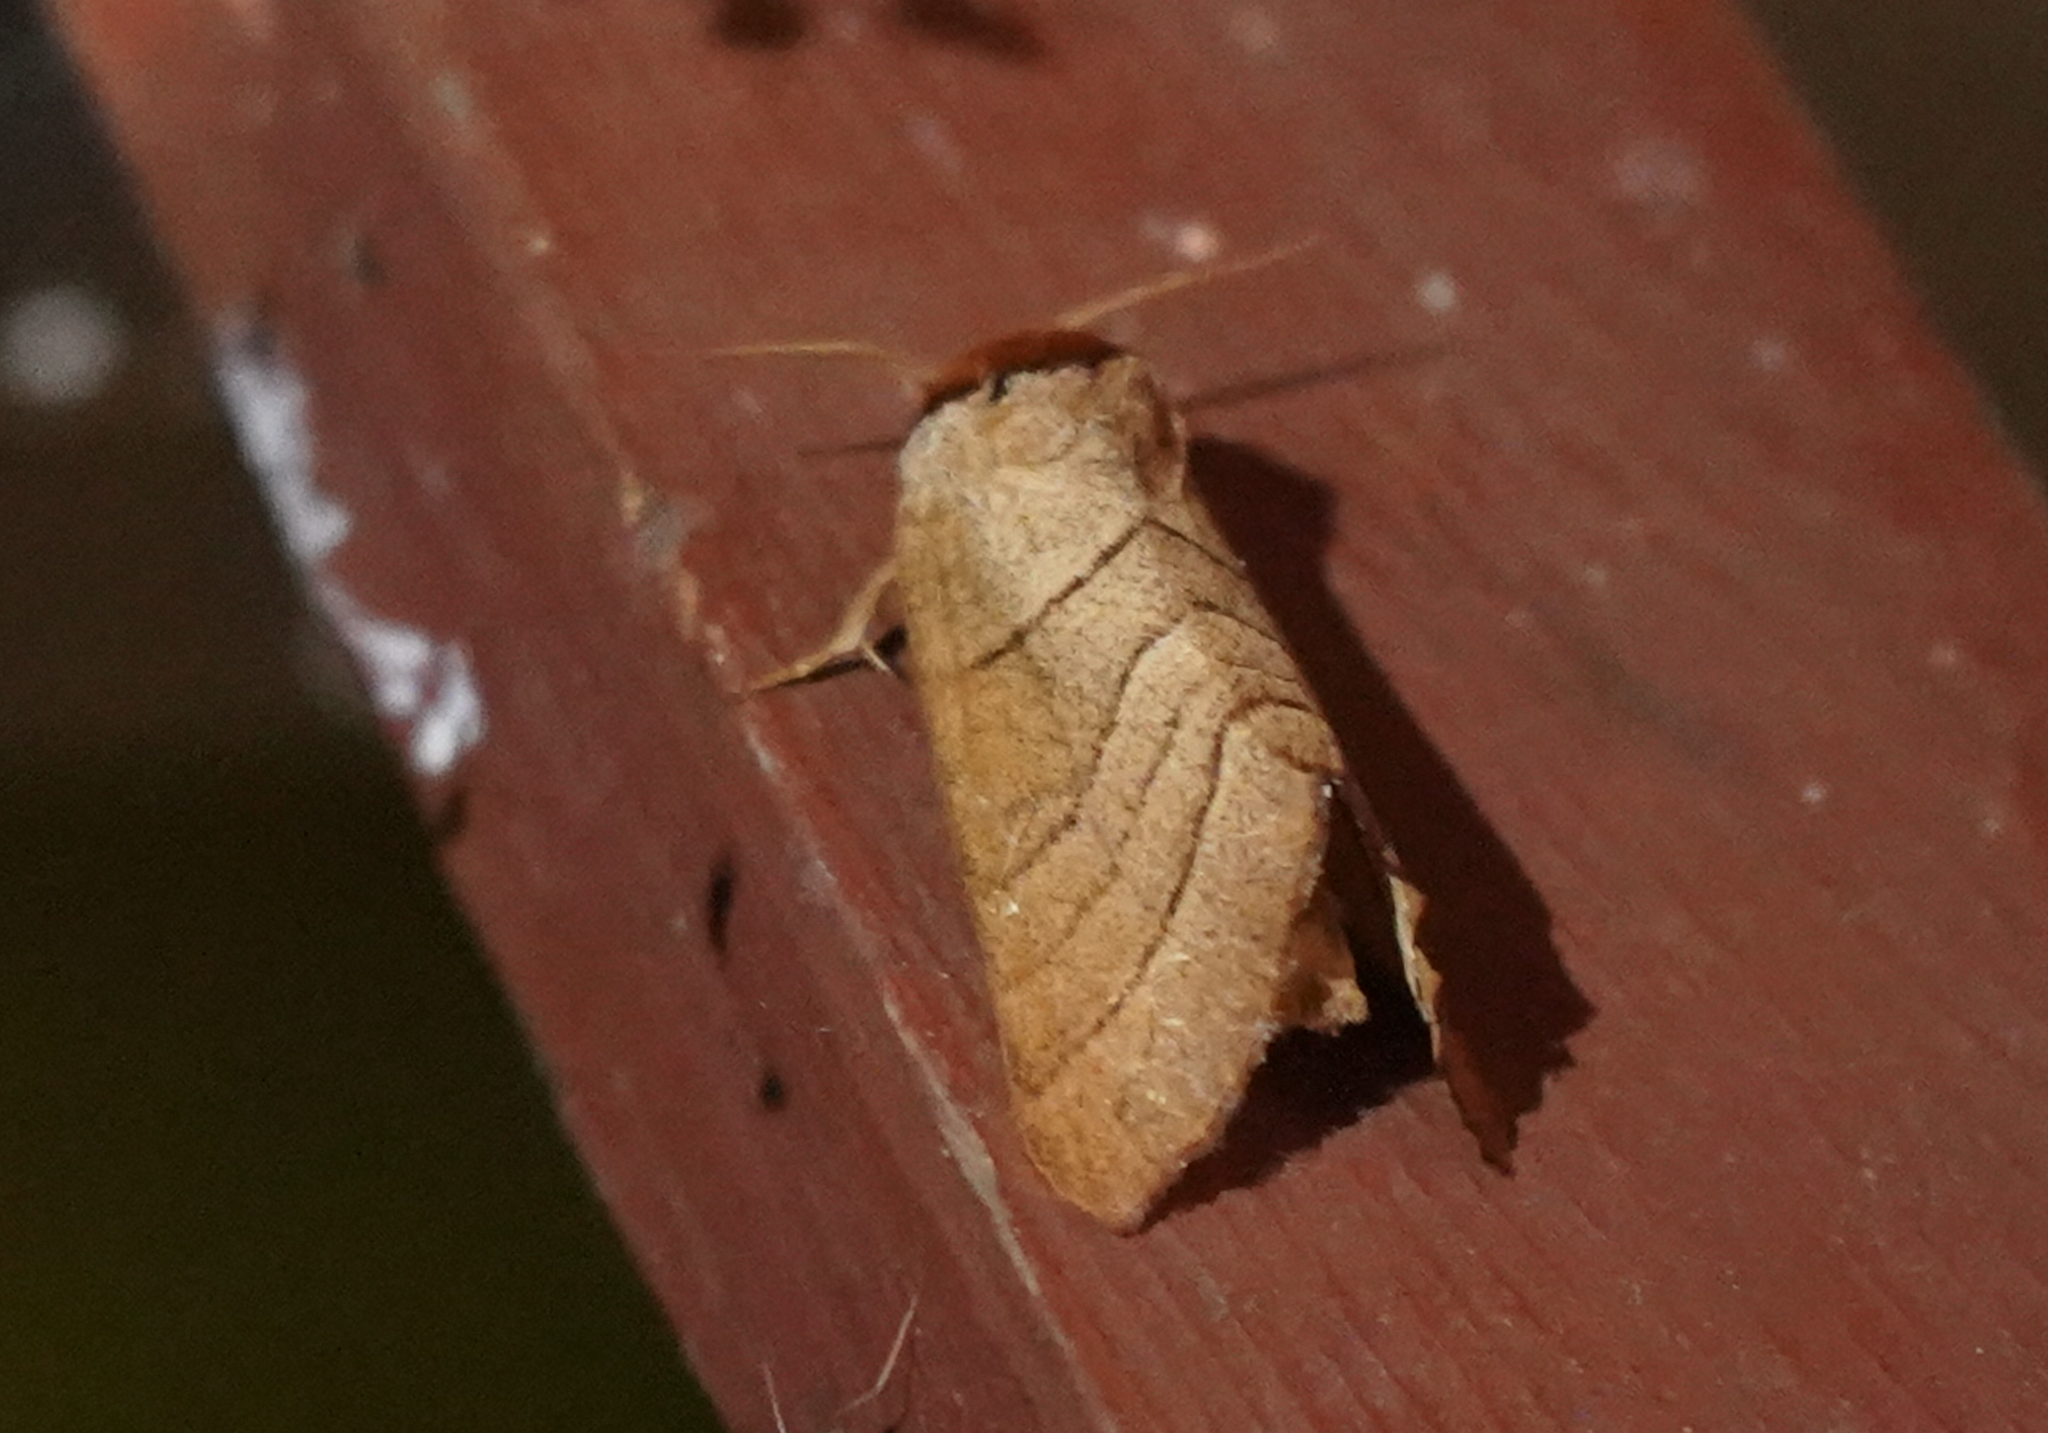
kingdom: Animalia
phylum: Arthropoda
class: Insecta
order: Lepidoptera
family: Notodontidae
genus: Datana
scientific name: Datana ministra
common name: Yellow-necked caterpillar moth
